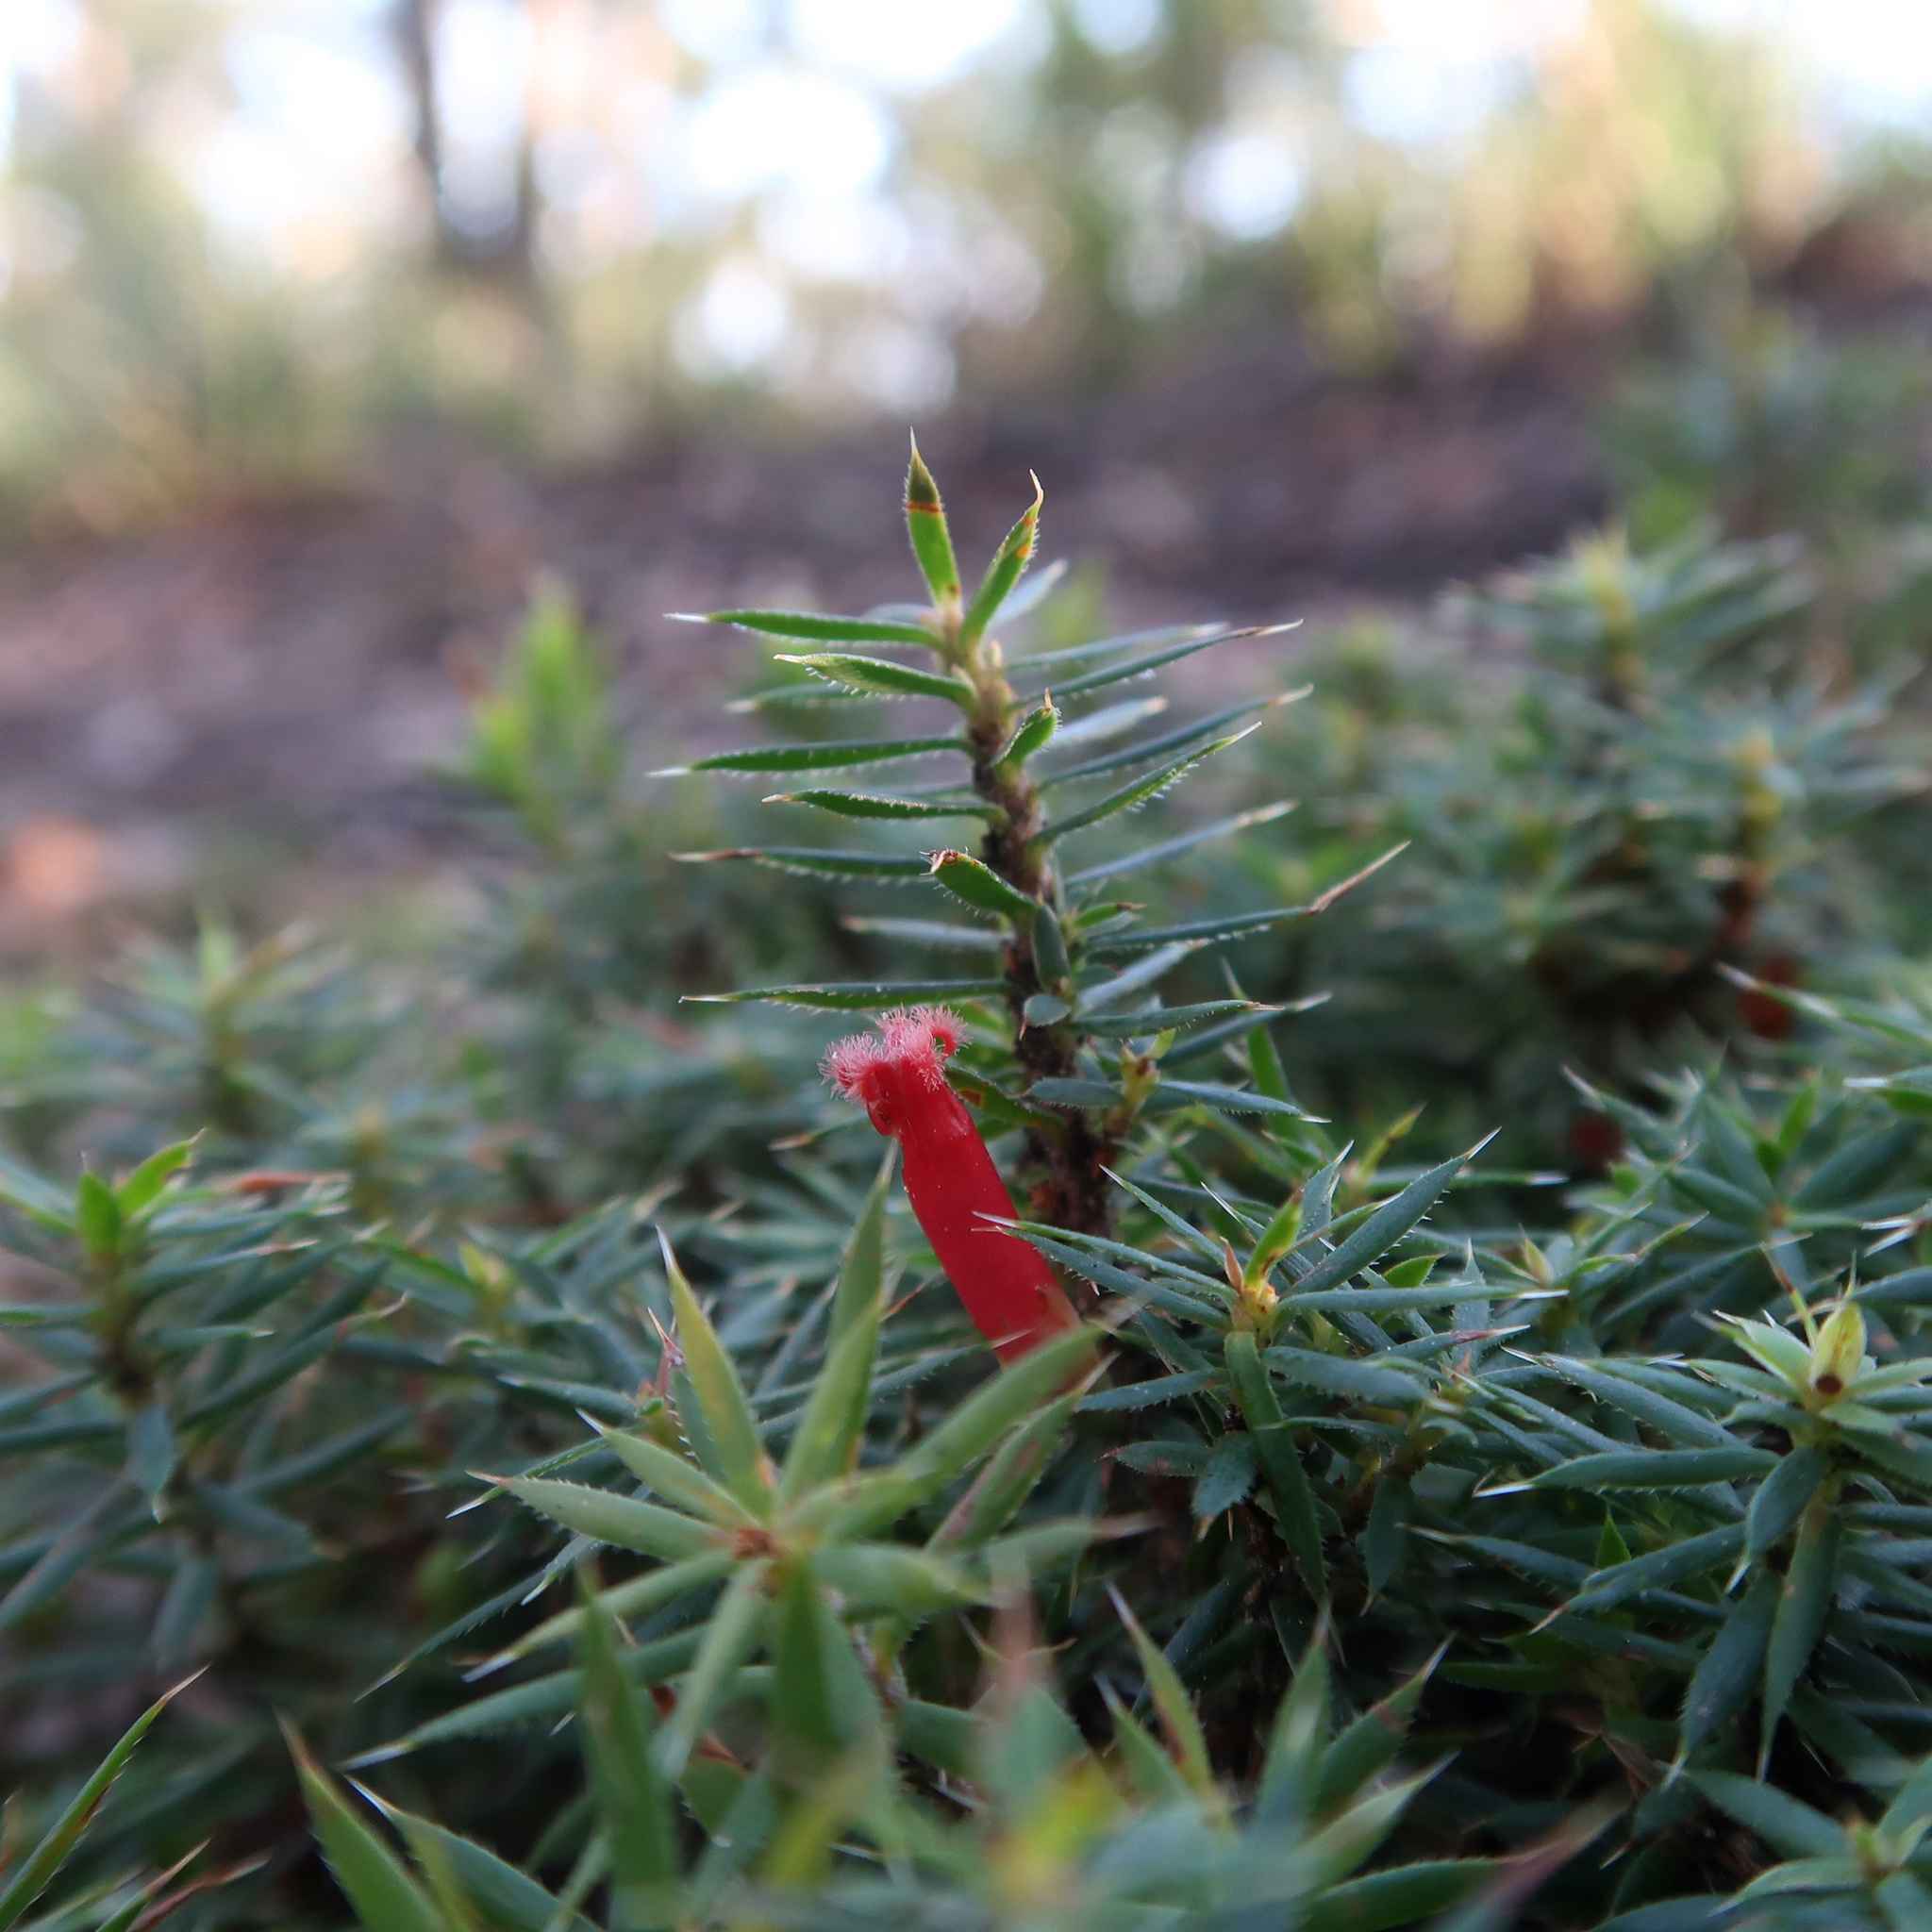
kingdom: Plantae
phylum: Tracheophyta
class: Magnoliopsida
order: Ericales
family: Ericaceae
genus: Styphelia
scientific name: Styphelia humifusa
